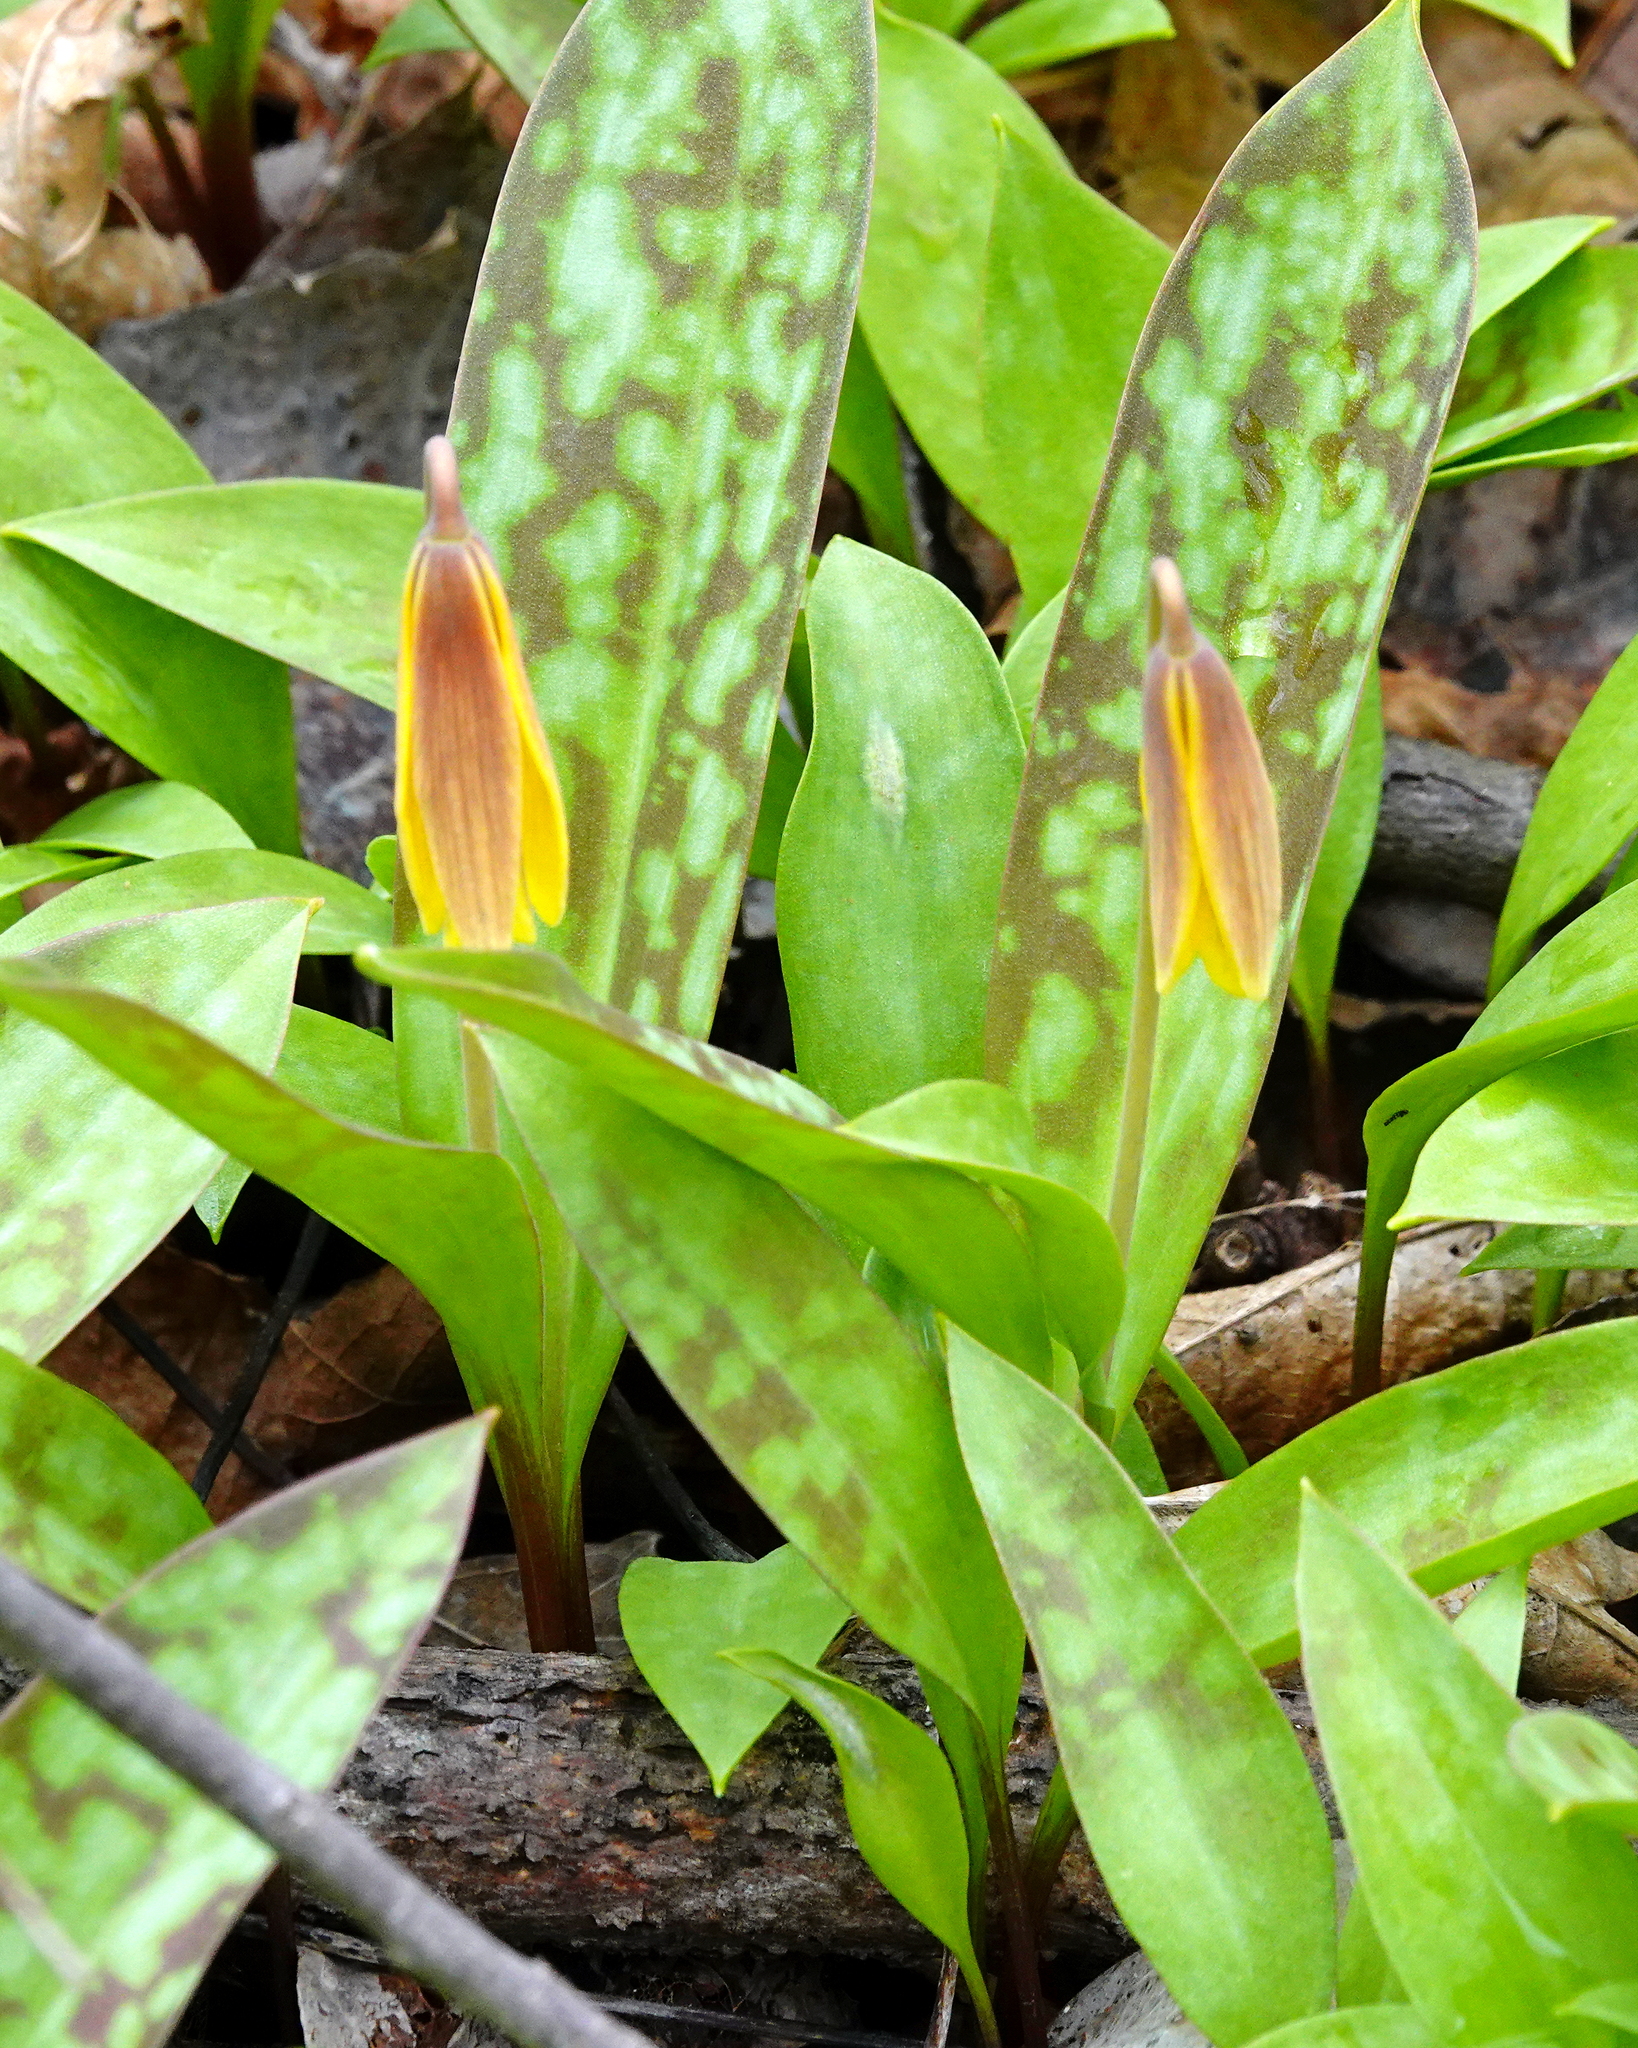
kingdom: Plantae
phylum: Tracheophyta
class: Liliopsida
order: Liliales
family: Liliaceae
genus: Erythronium
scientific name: Erythronium americanum
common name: Yellow adder's-tongue
